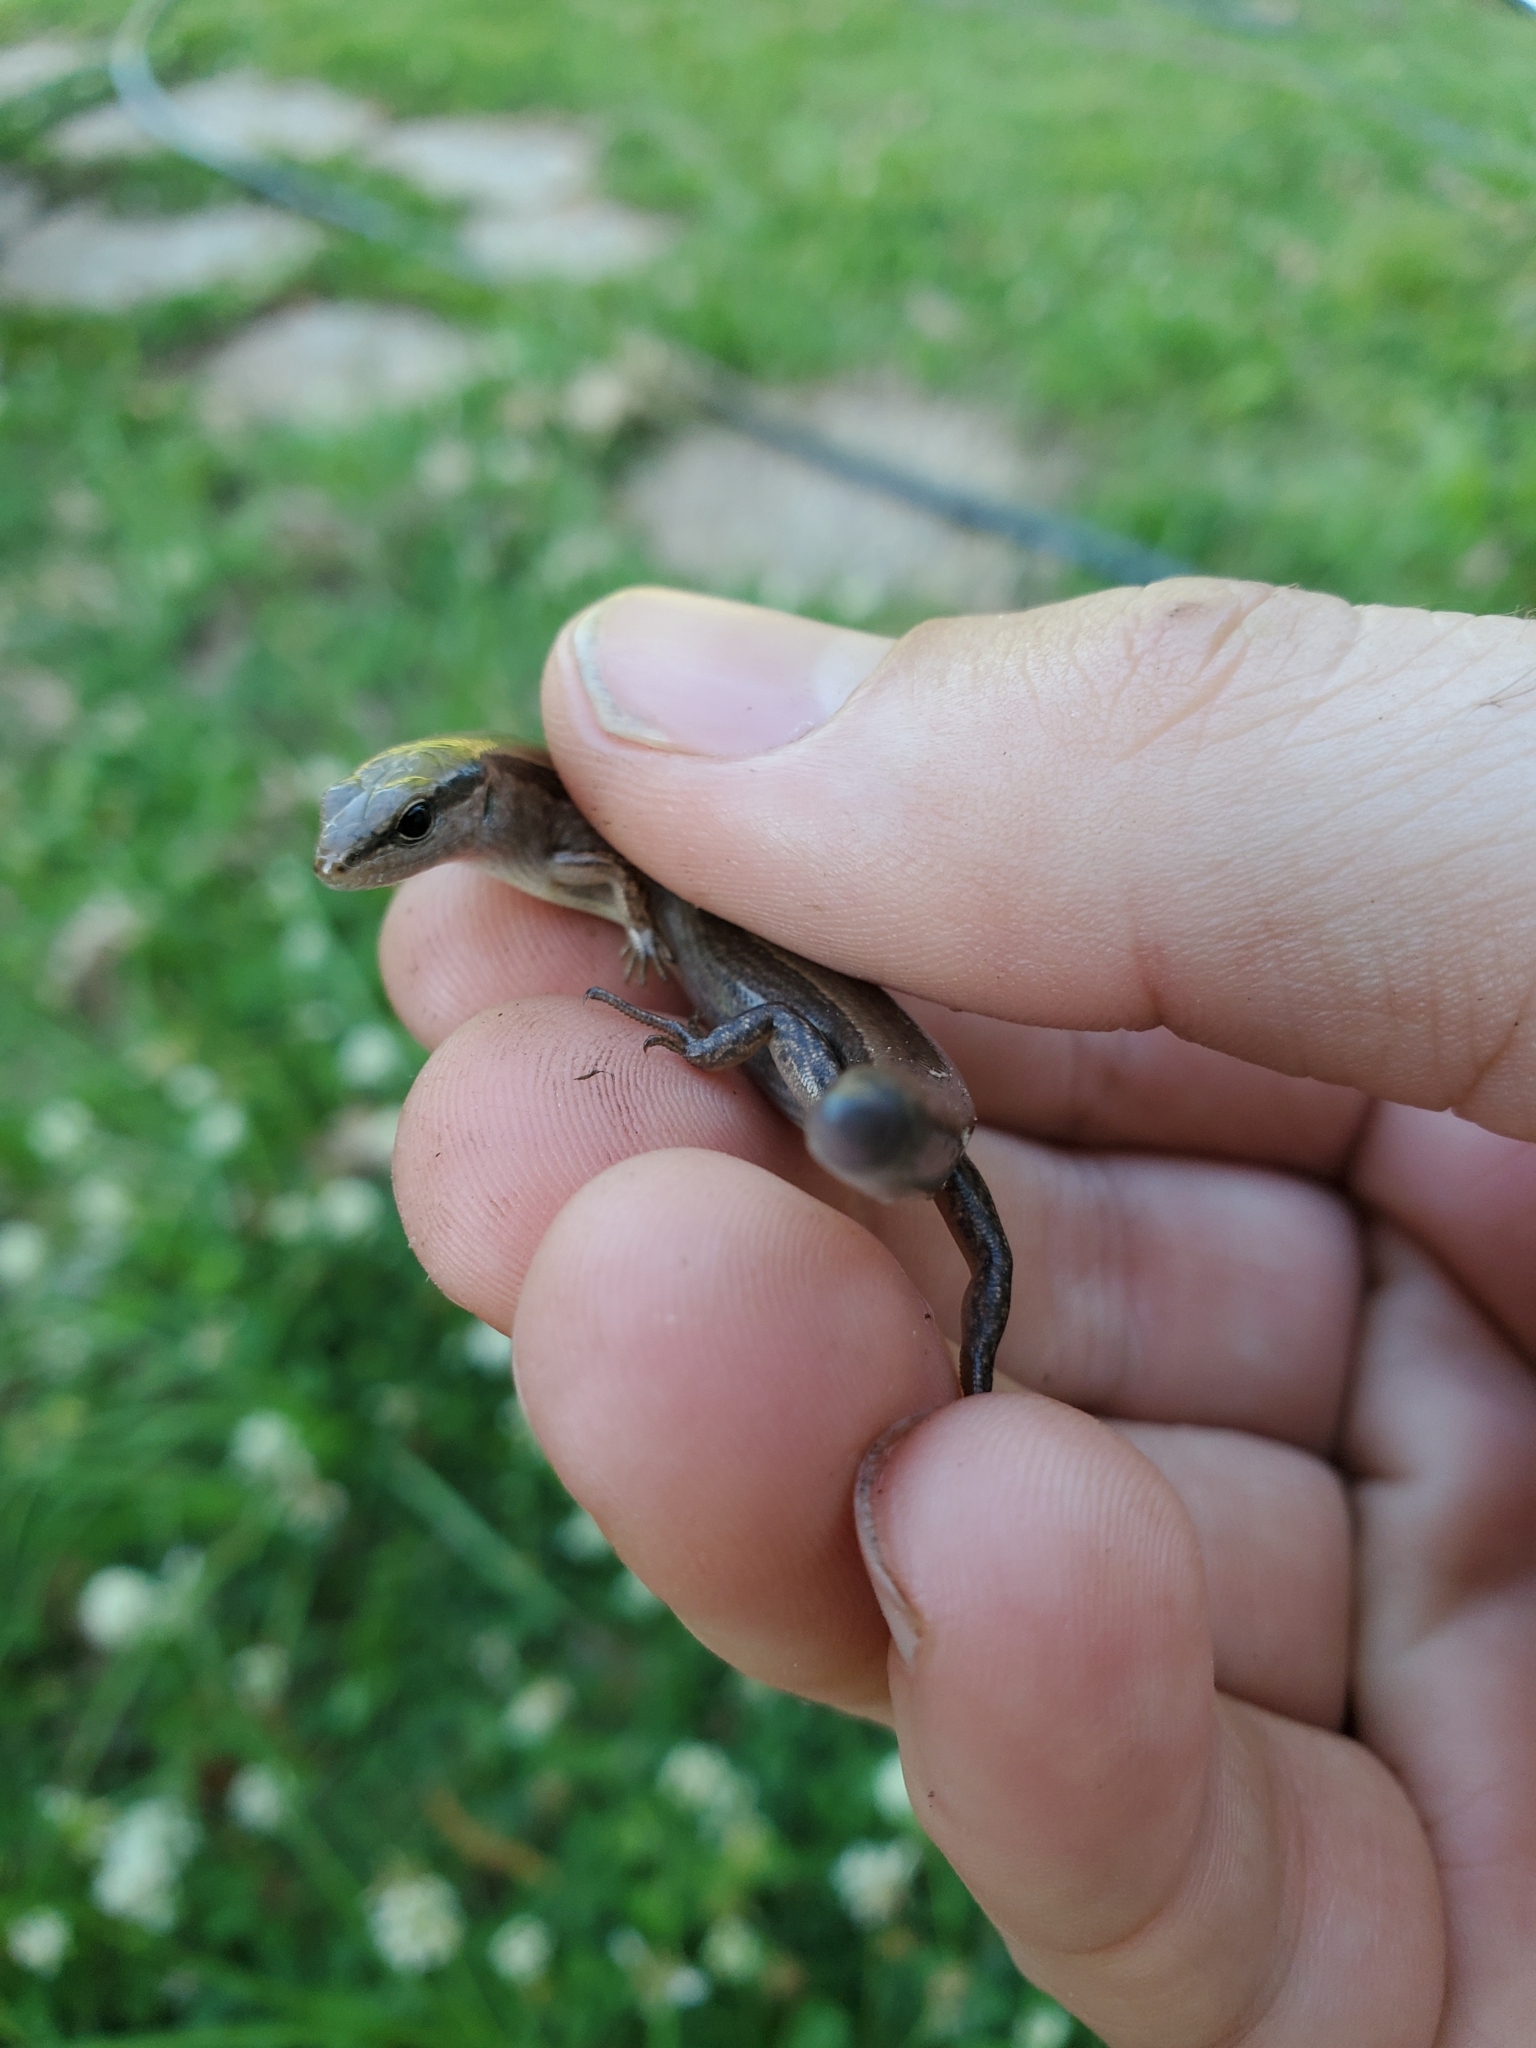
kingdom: Animalia
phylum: Chordata
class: Squamata
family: Scincidae
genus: Scincella
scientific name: Scincella lateralis
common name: Ground skink
